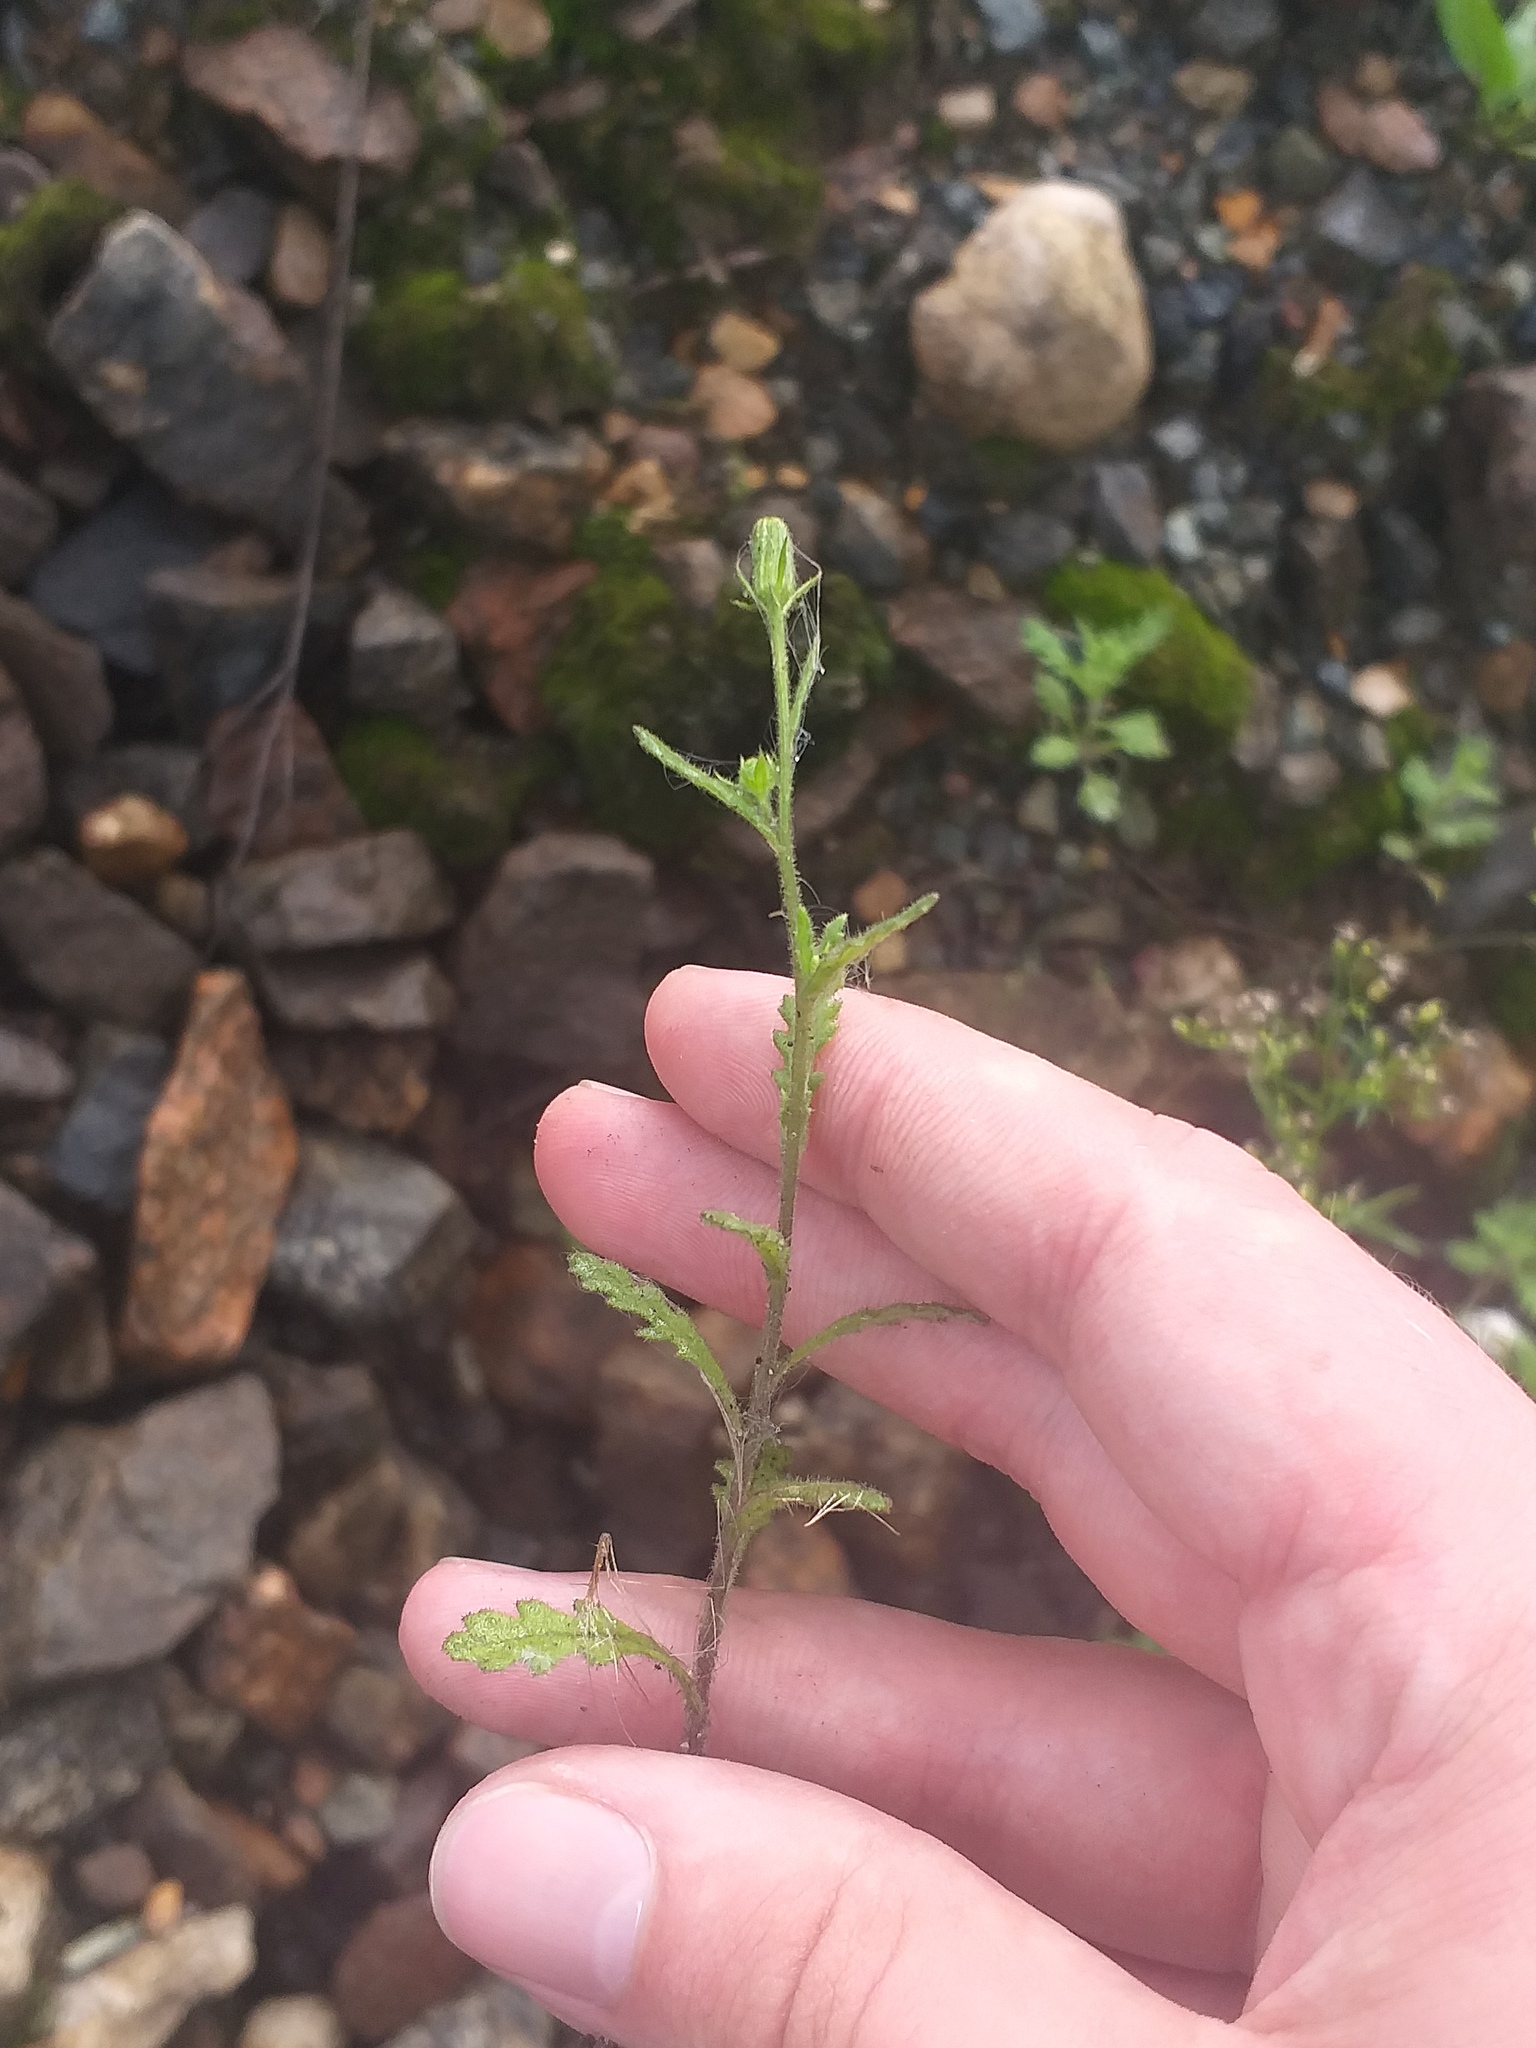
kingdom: Plantae
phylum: Tracheophyta
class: Magnoliopsida
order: Asterales
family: Asteraceae
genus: Senecio
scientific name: Senecio viscosus
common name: Sticky groundsel
